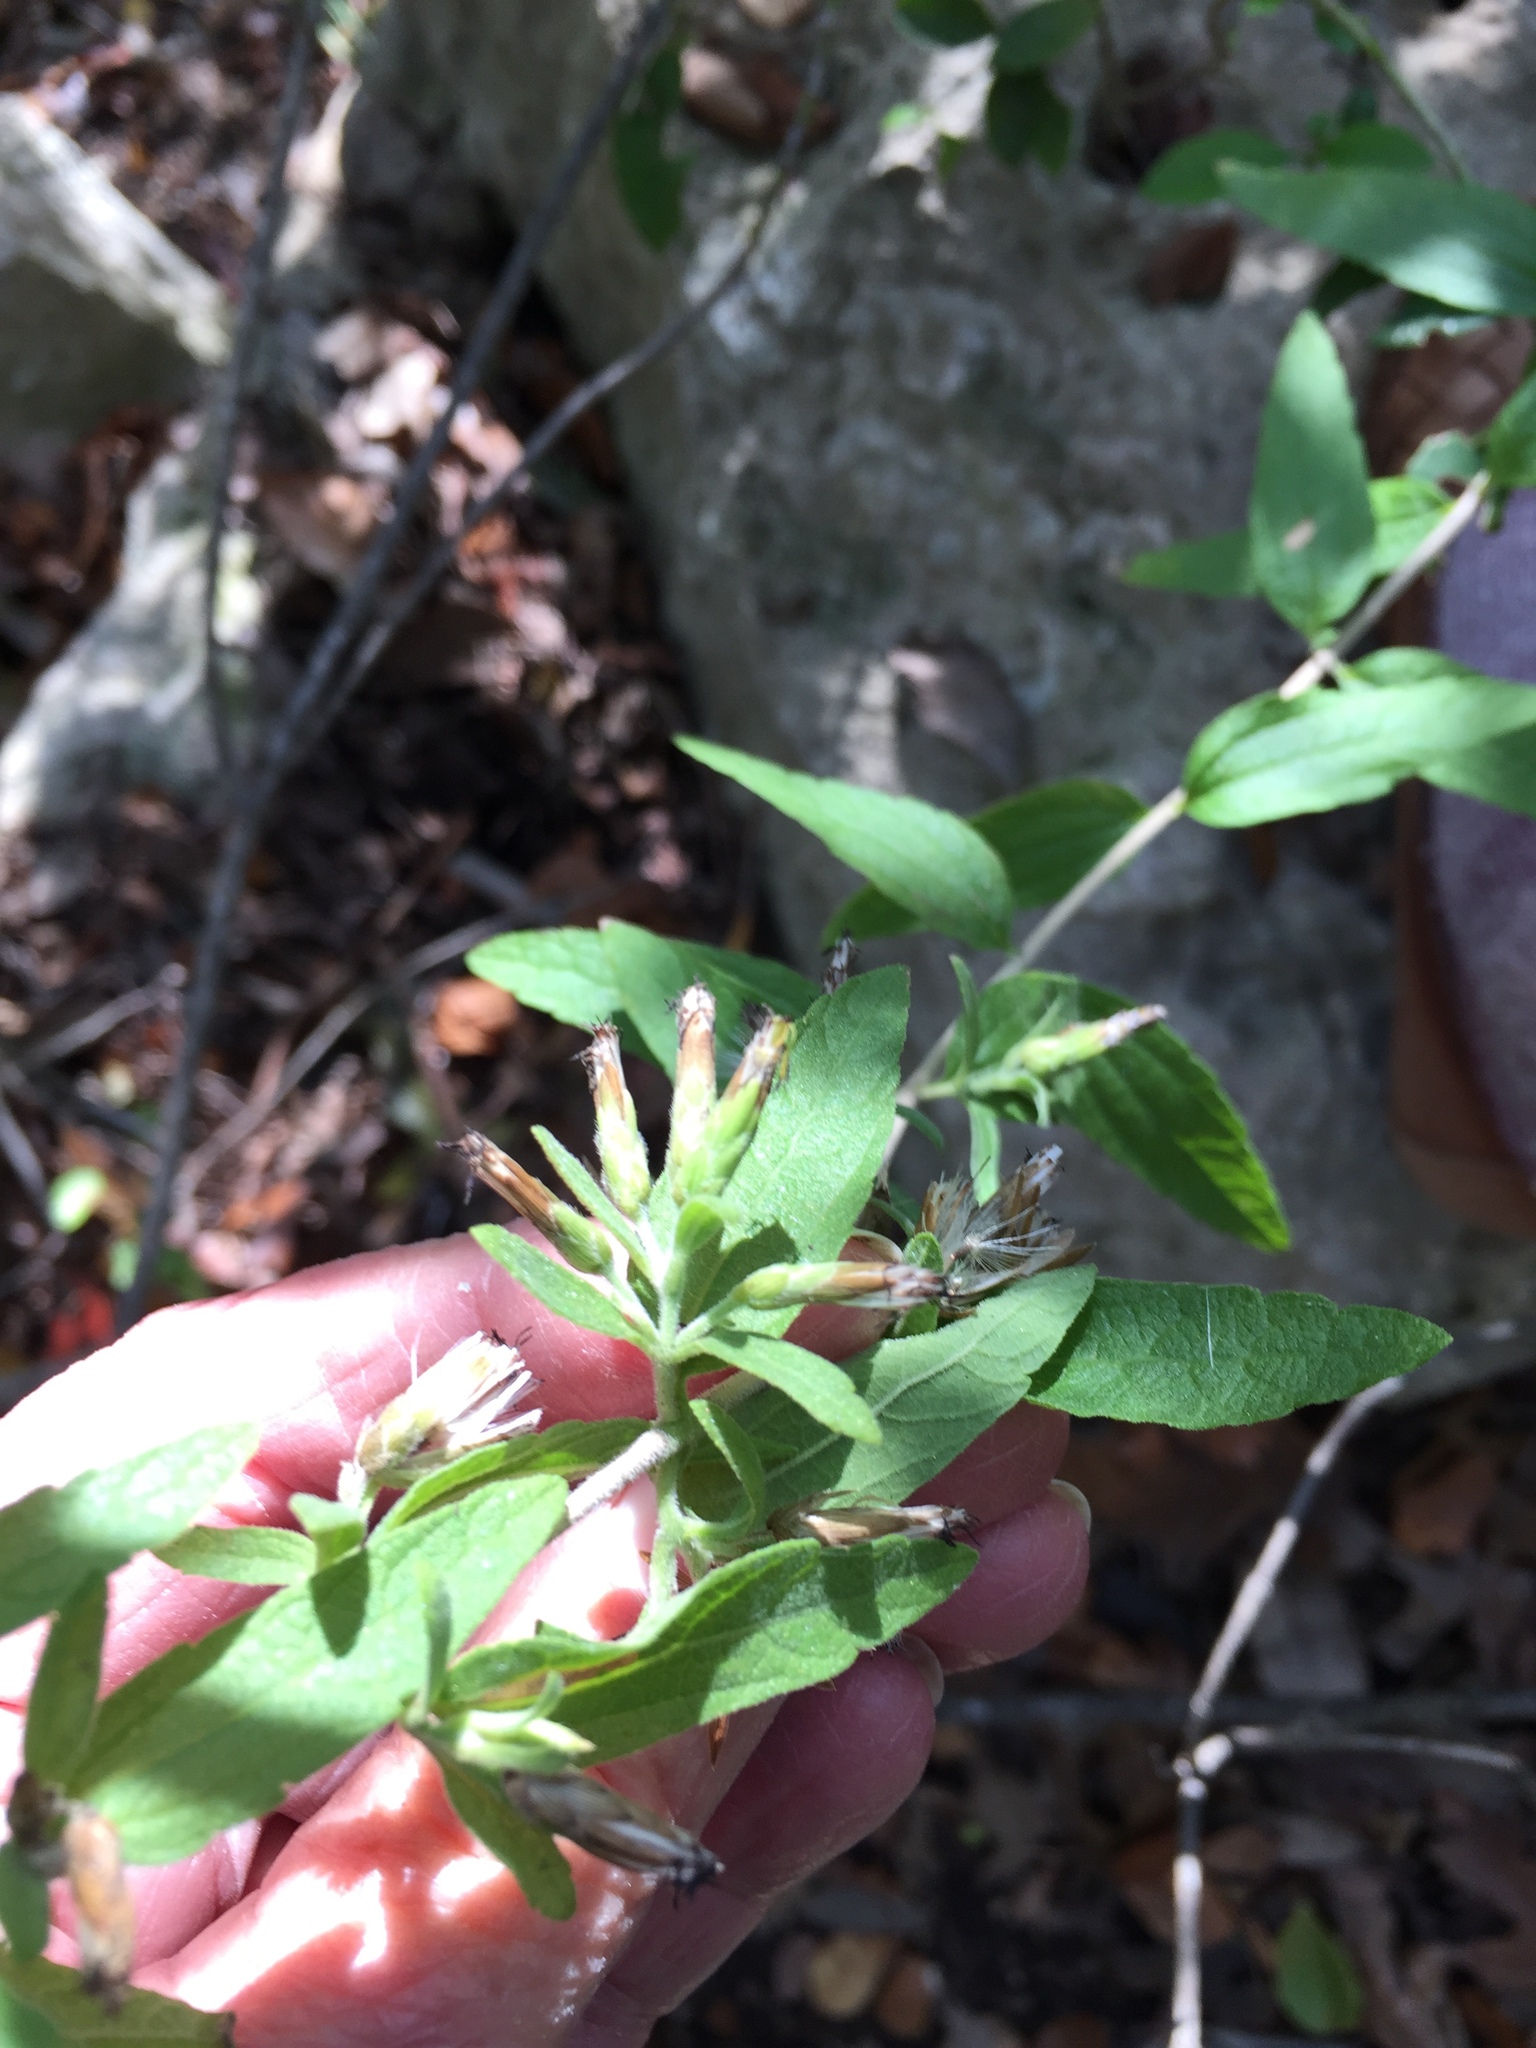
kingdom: Plantae
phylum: Tracheophyta
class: Magnoliopsida
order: Asterales
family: Asteraceae
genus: Brickellia
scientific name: Brickellia cylindracea
